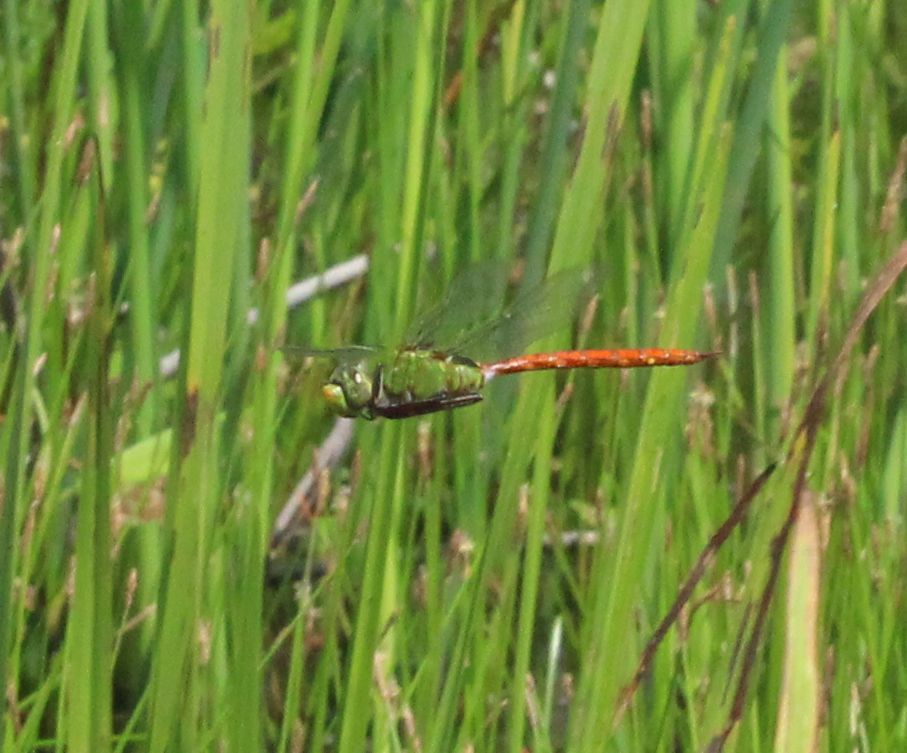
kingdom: Animalia
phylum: Arthropoda
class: Insecta
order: Odonata
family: Aeshnidae
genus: Anax
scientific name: Anax longipes
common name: Comet darner
